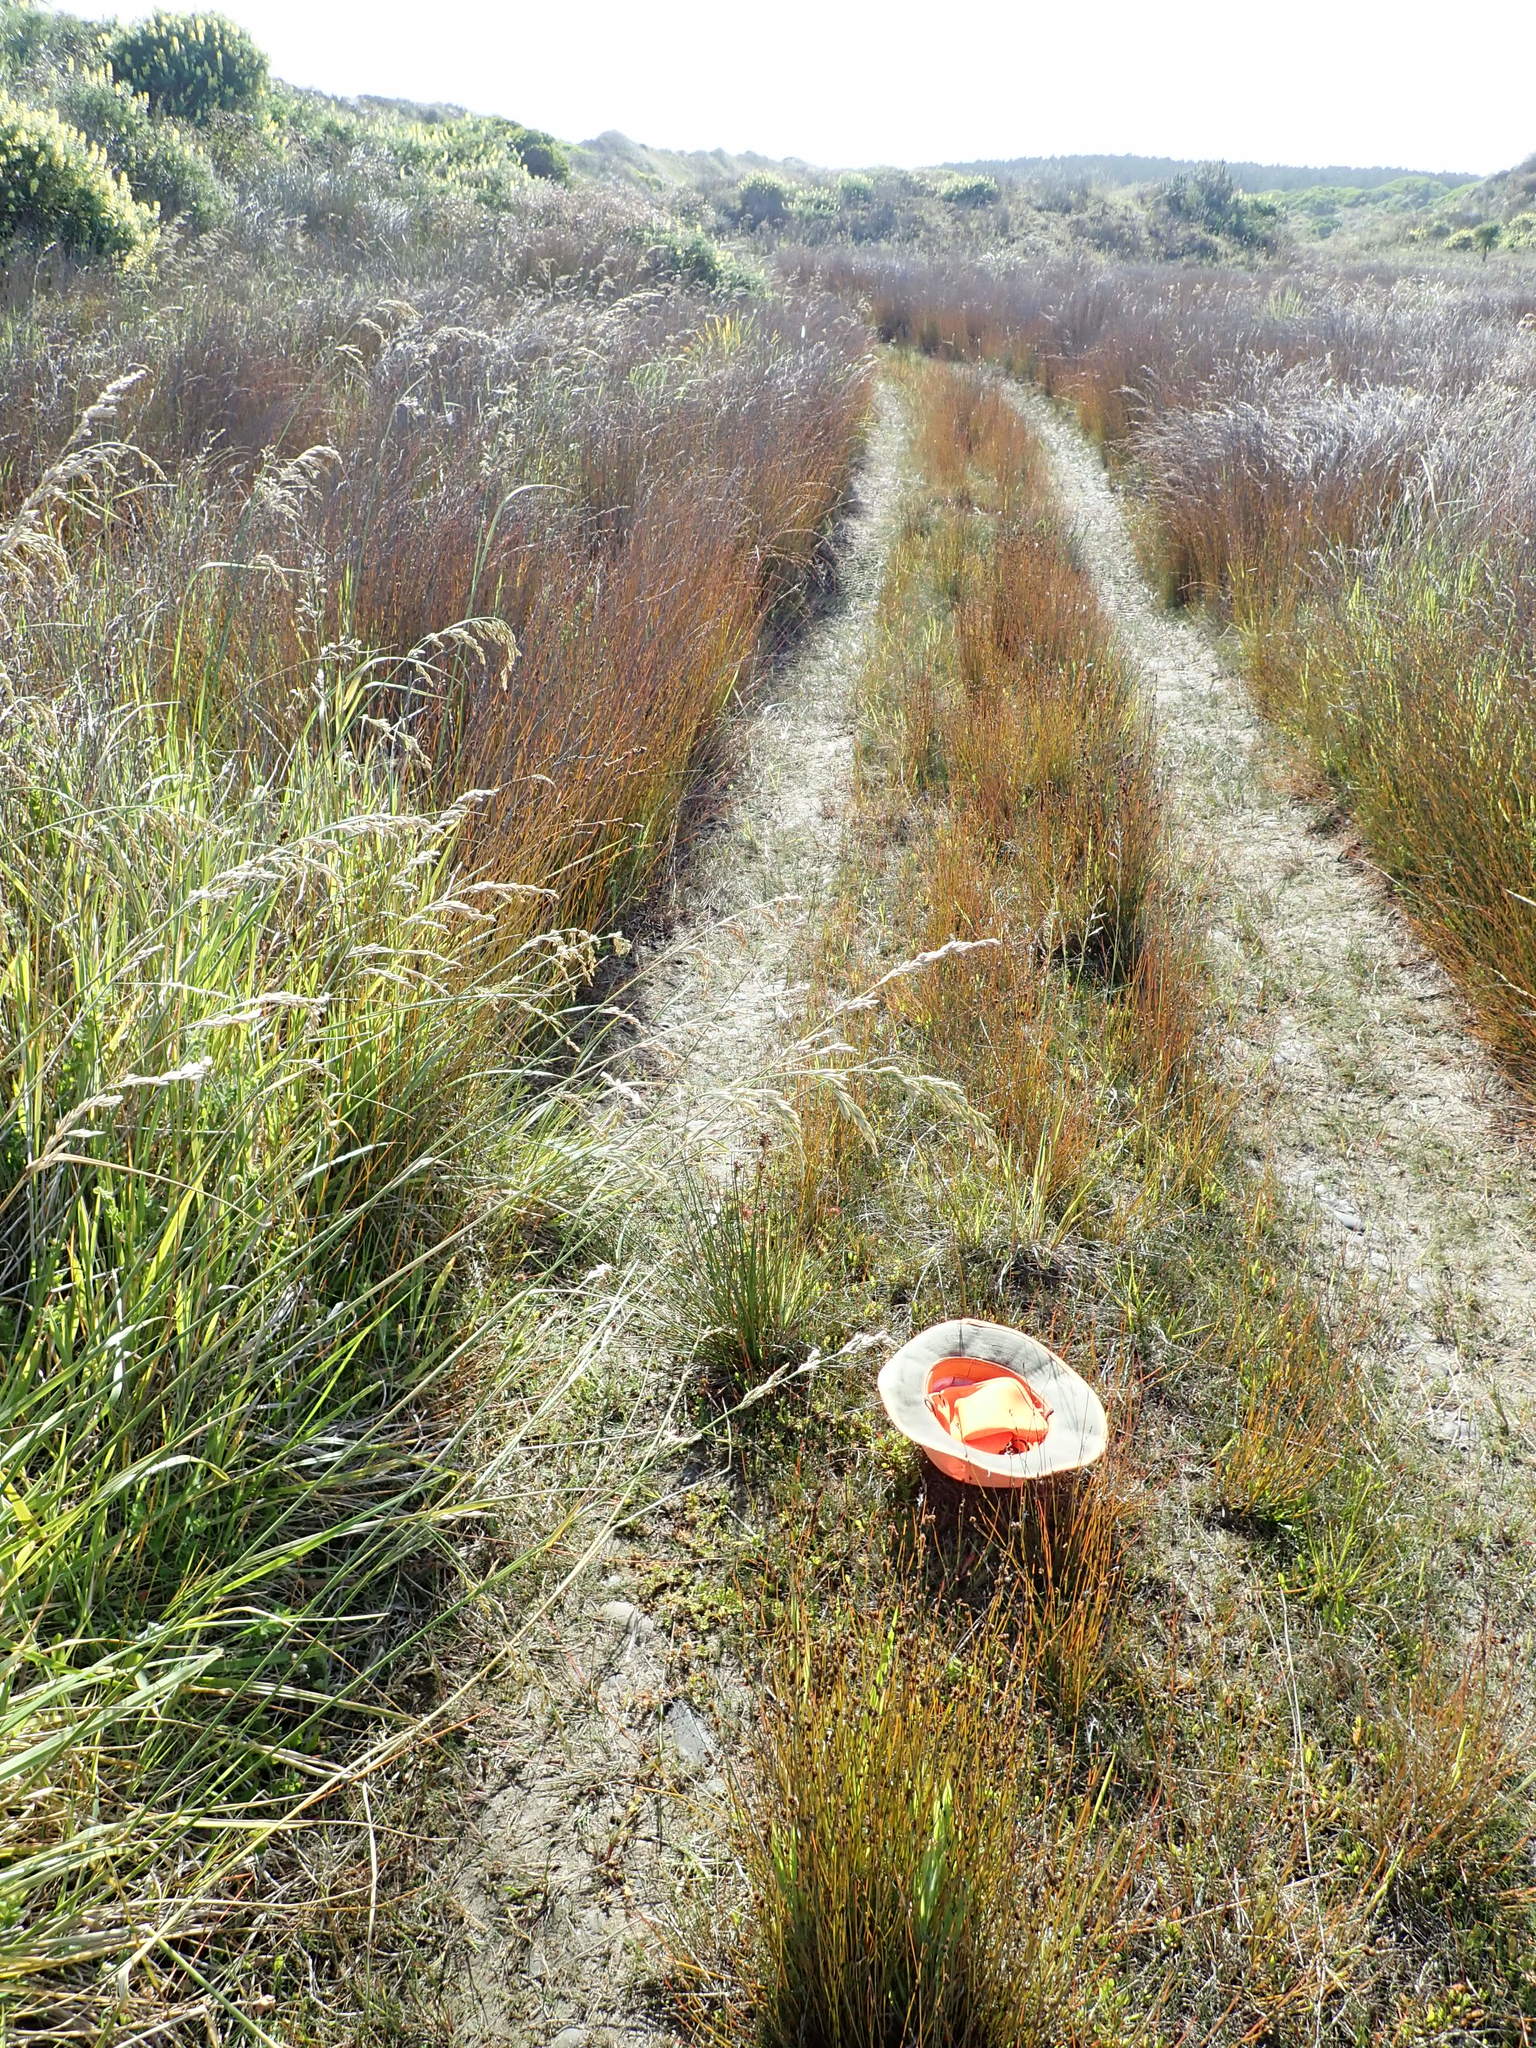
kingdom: Plantae
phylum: Tracheophyta
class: Liliopsida
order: Poales
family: Juncaceae
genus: Juncus
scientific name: Juncus acutus
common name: Sharp rush
